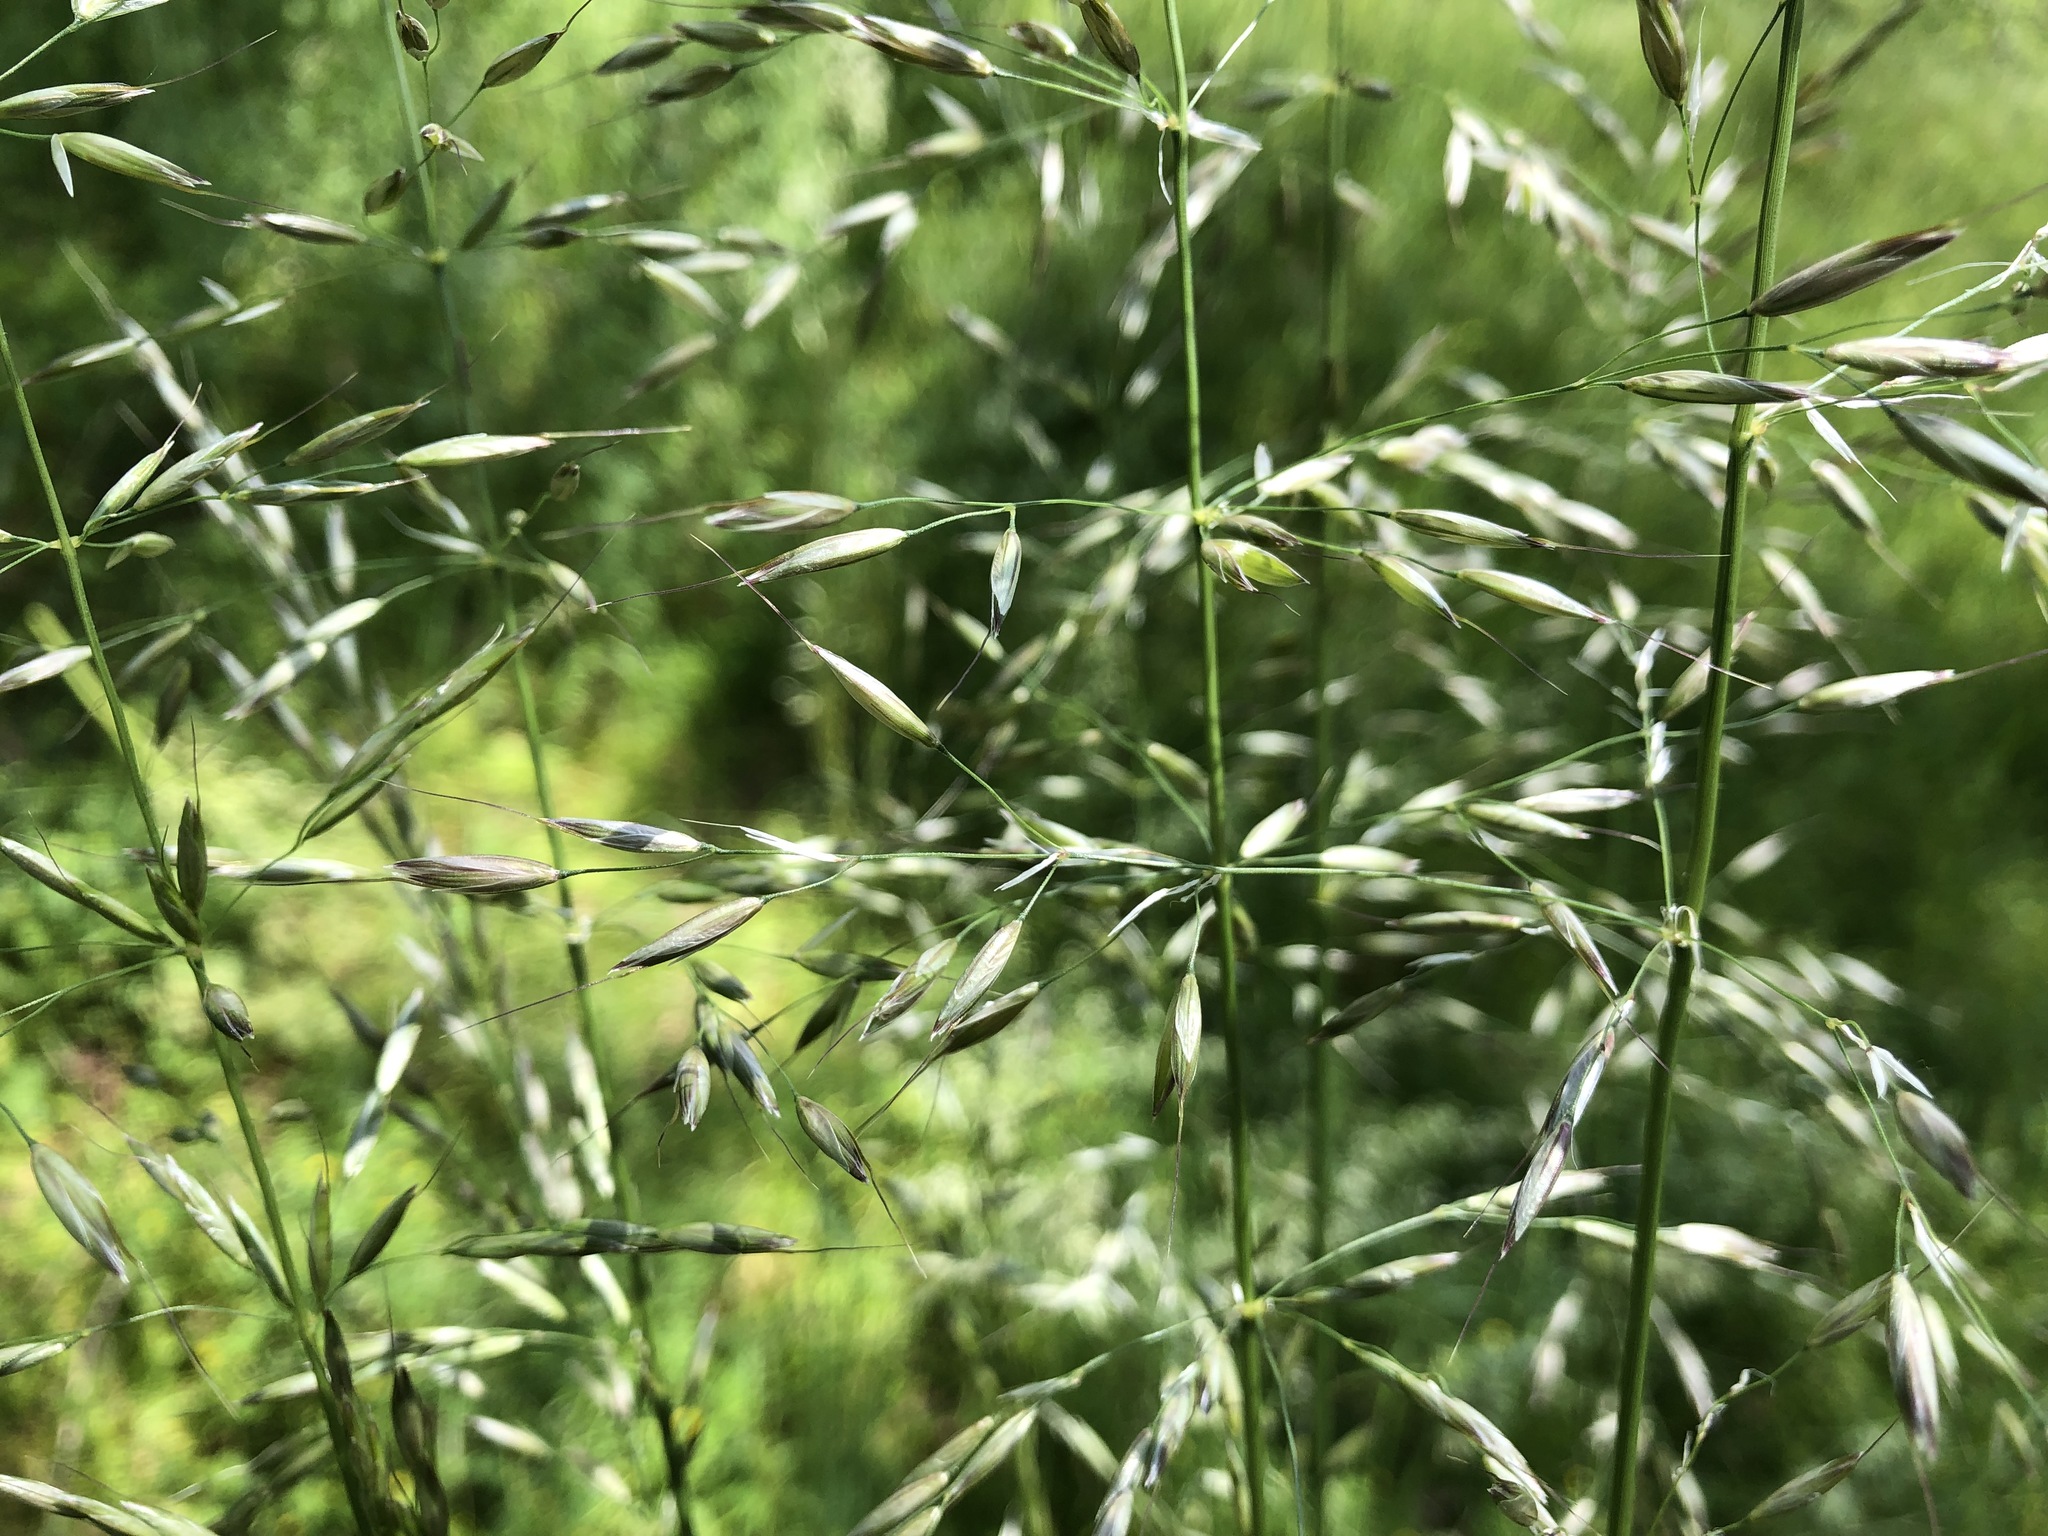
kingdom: Plantae
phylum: Tracheophyta
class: Liliopsida
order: Poales
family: Poaceae
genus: Arrhenatherum
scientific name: Arrhenatherum elatius
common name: Tall oatgrass
